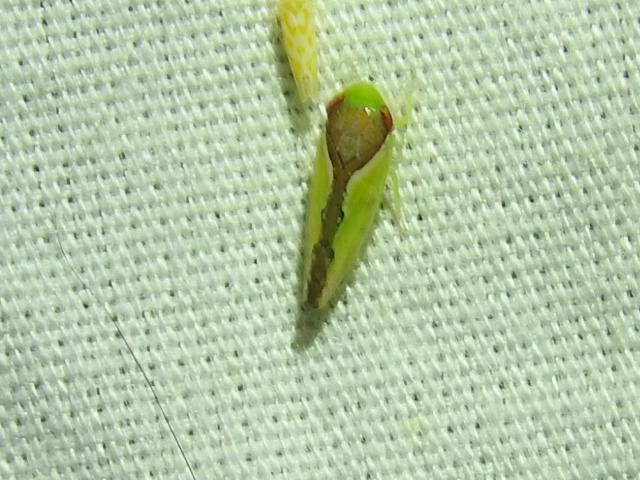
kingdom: Animalia
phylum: Arthropoda
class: Insecta
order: Hemiptera
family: Cicadellidae
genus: Omansobara ing
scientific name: Omansobara ing Omansobara palliolata
